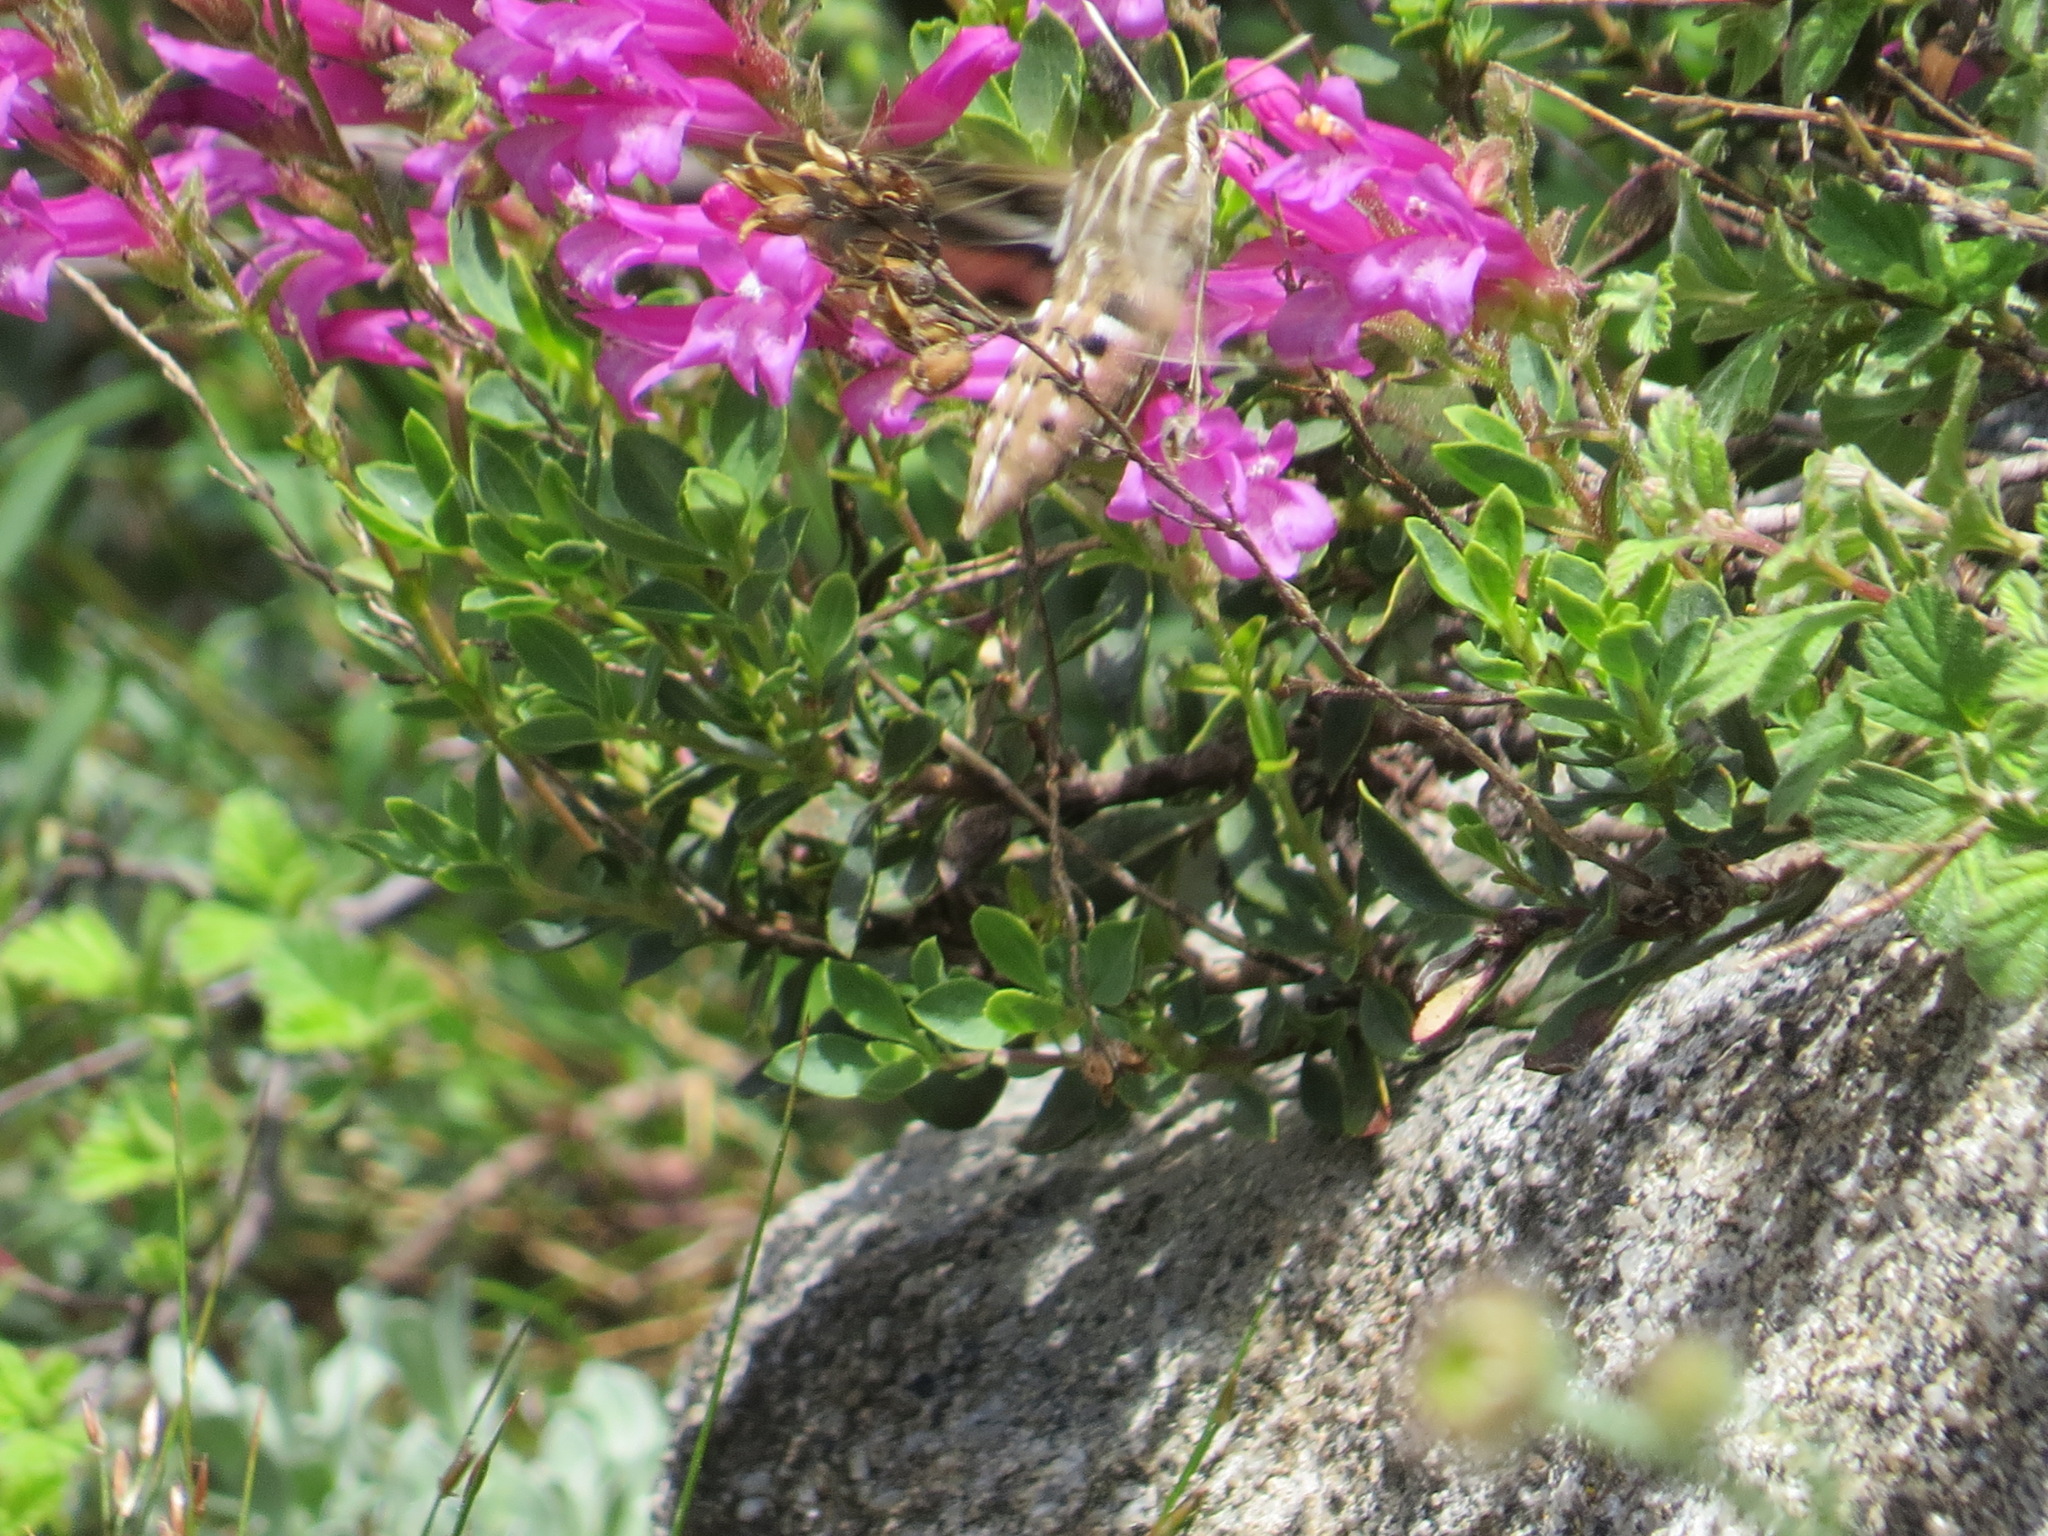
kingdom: Animalia
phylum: Arthropoda
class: Insecta
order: Lepidoptera
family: Sphingidae
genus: Hyles
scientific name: Hyles lineata
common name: White-lined sphinx
